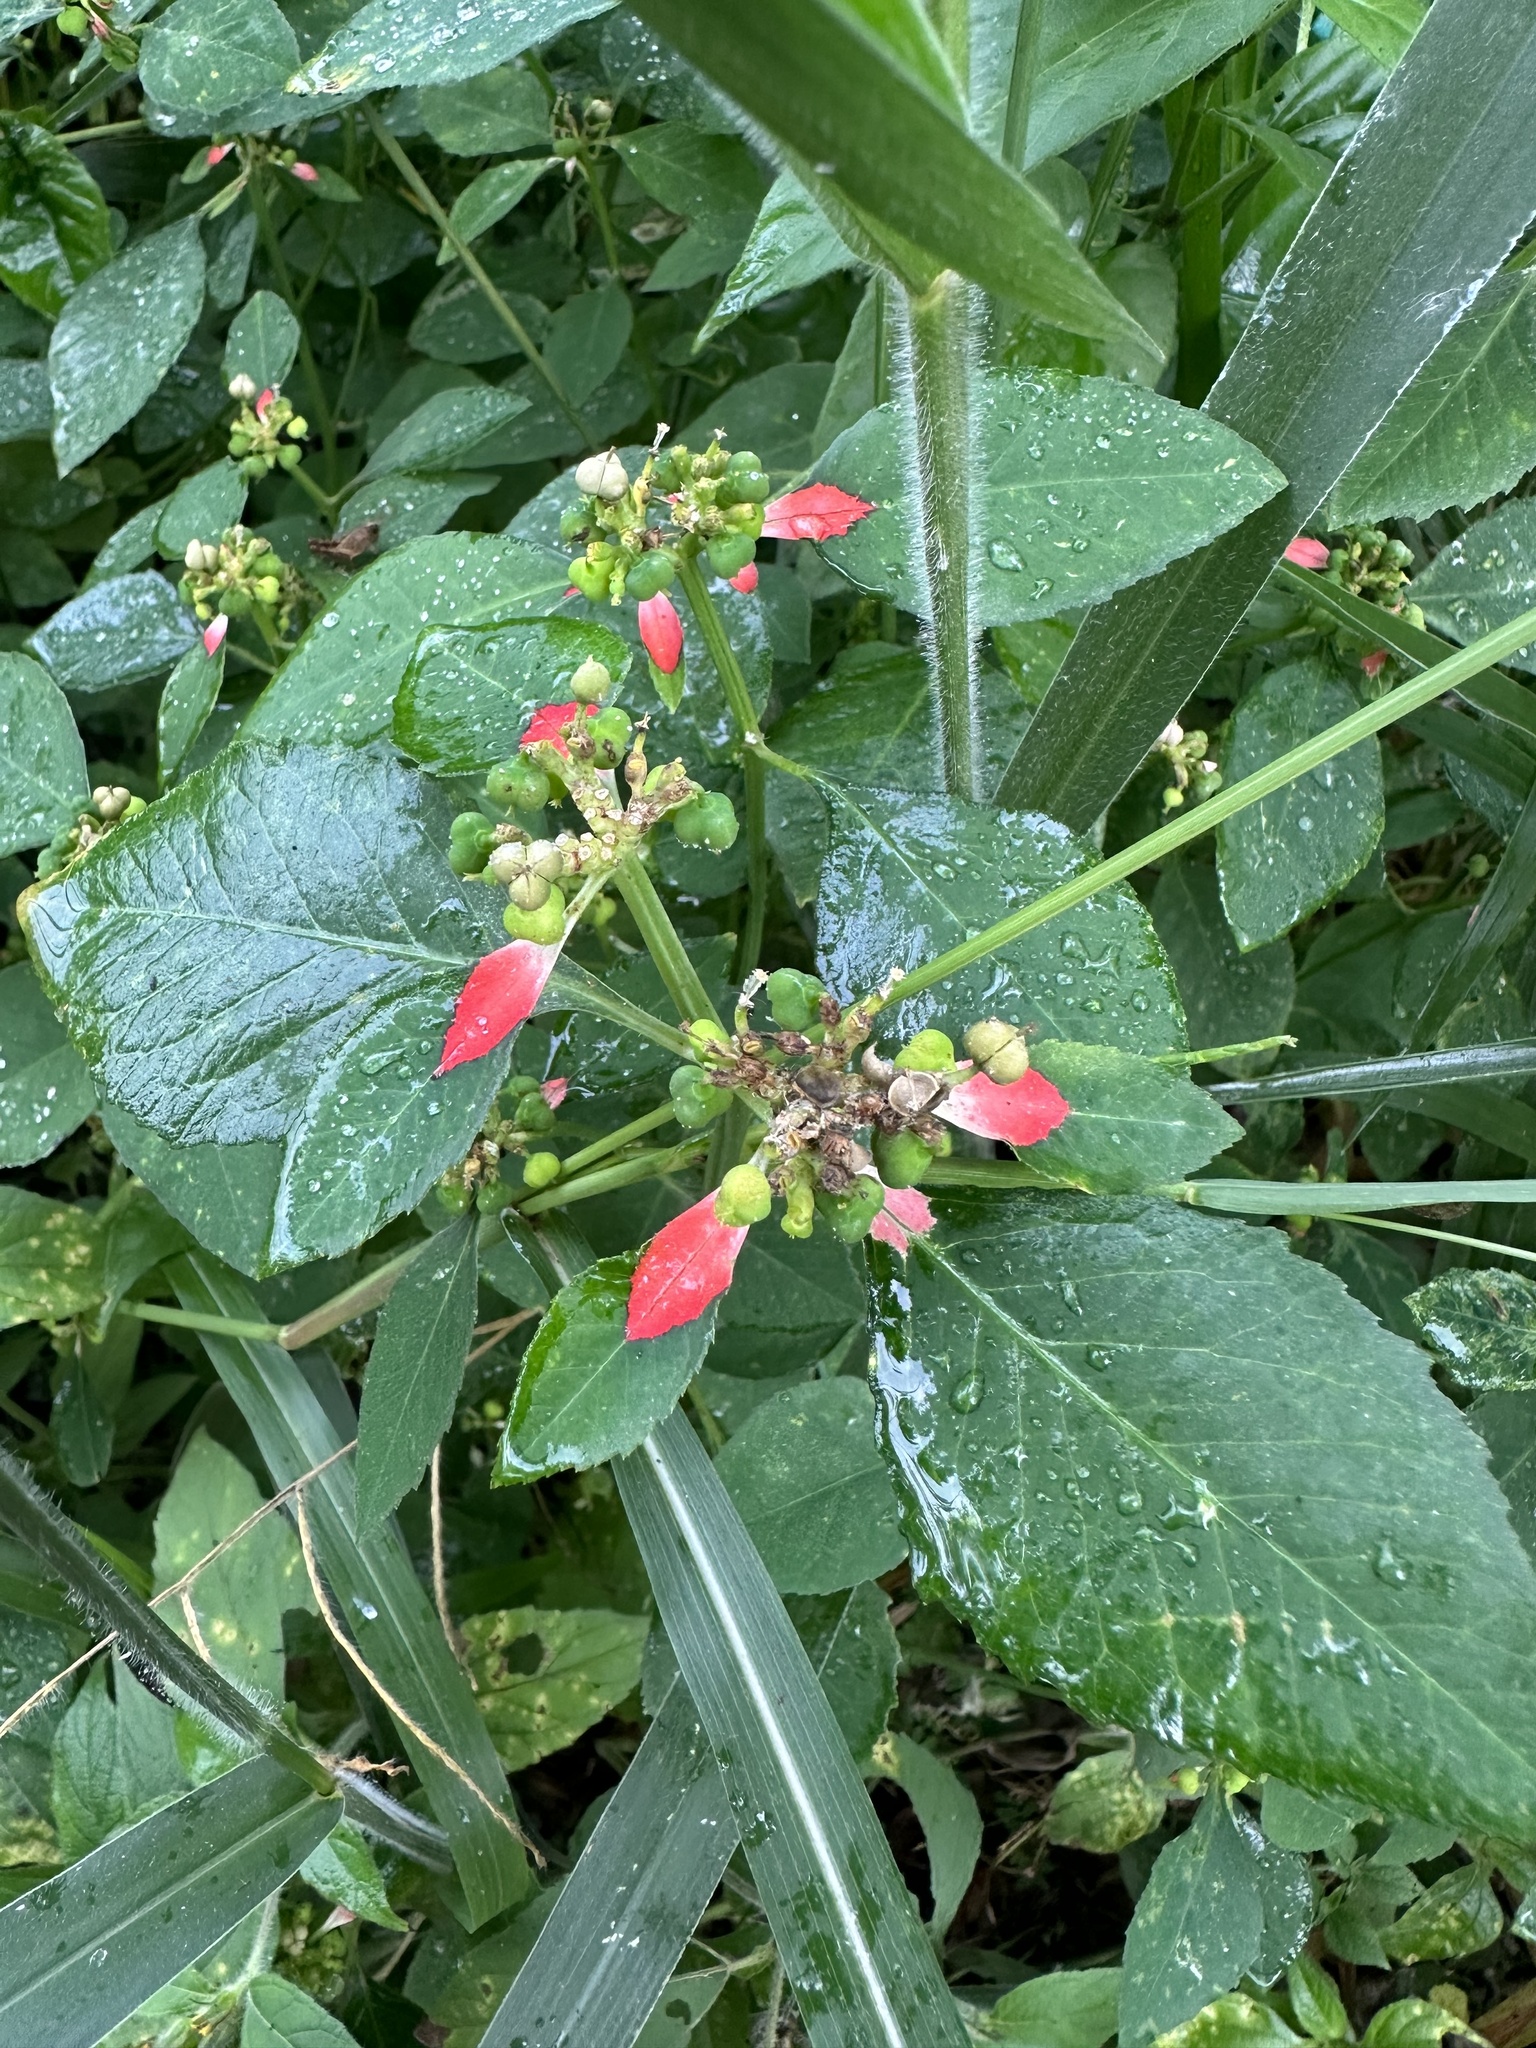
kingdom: Plantae
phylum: Tracheophyta
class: Magnoliopsida
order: Malpighiales
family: Euphorbiaceae
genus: Euphorbia
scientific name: Euphorbia heterophylla
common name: Mexican fireplant
